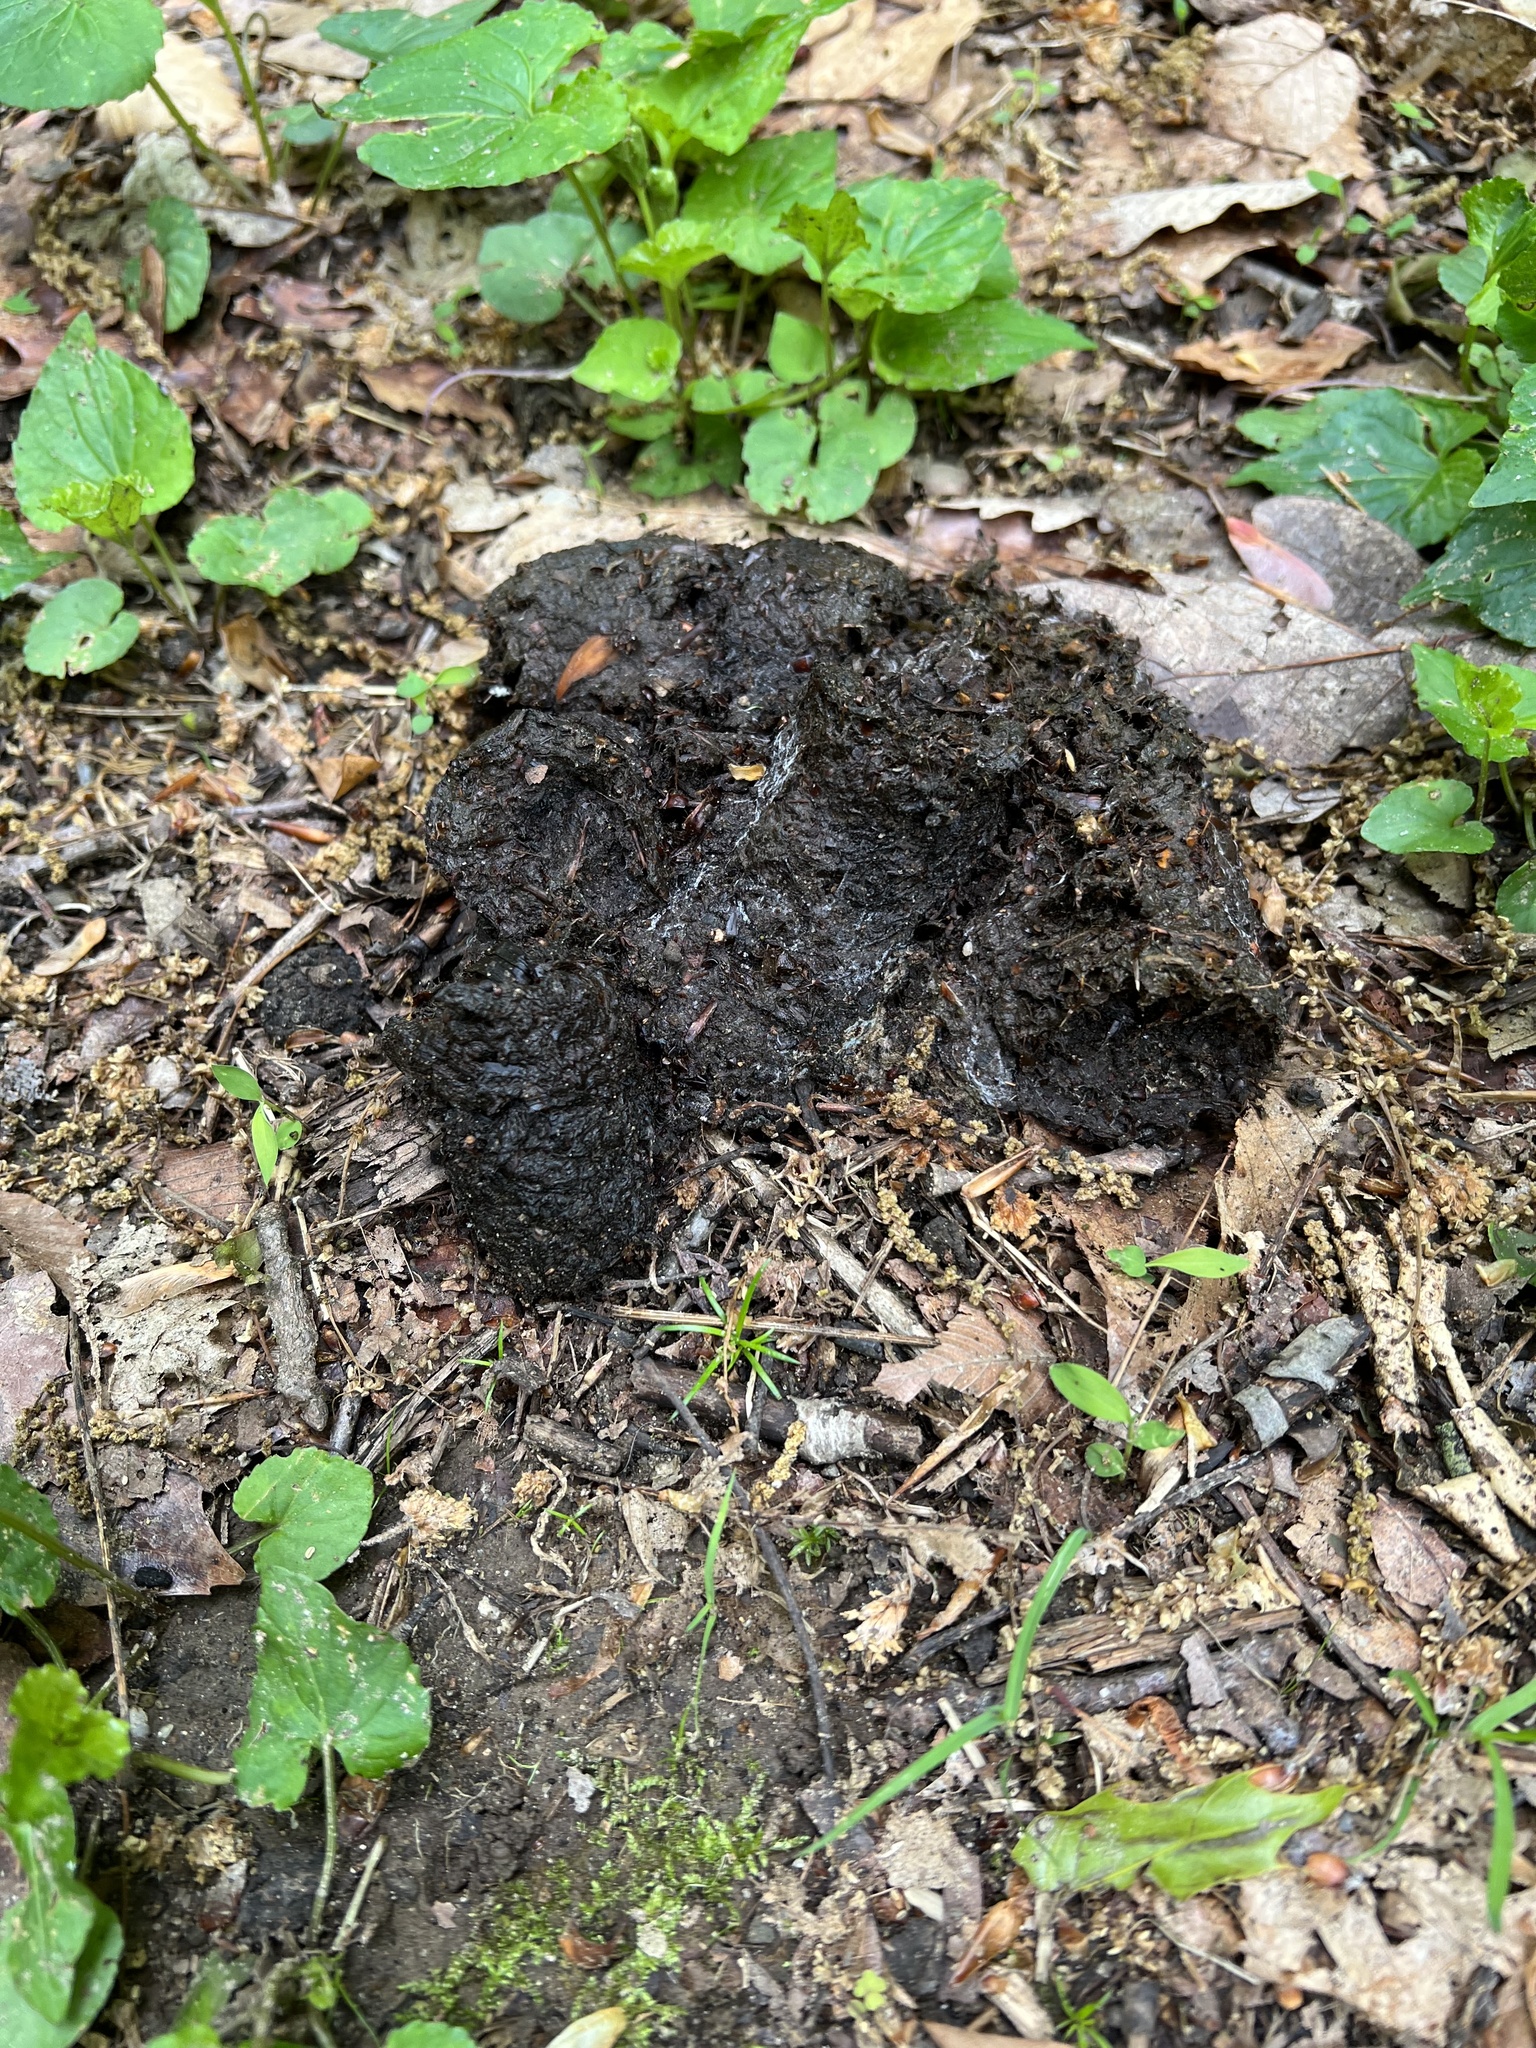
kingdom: Animalia
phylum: Chordata
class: Mammalia
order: Carnivora
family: Ursidae
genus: Ursus
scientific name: Ursus americanus
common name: American black bear
